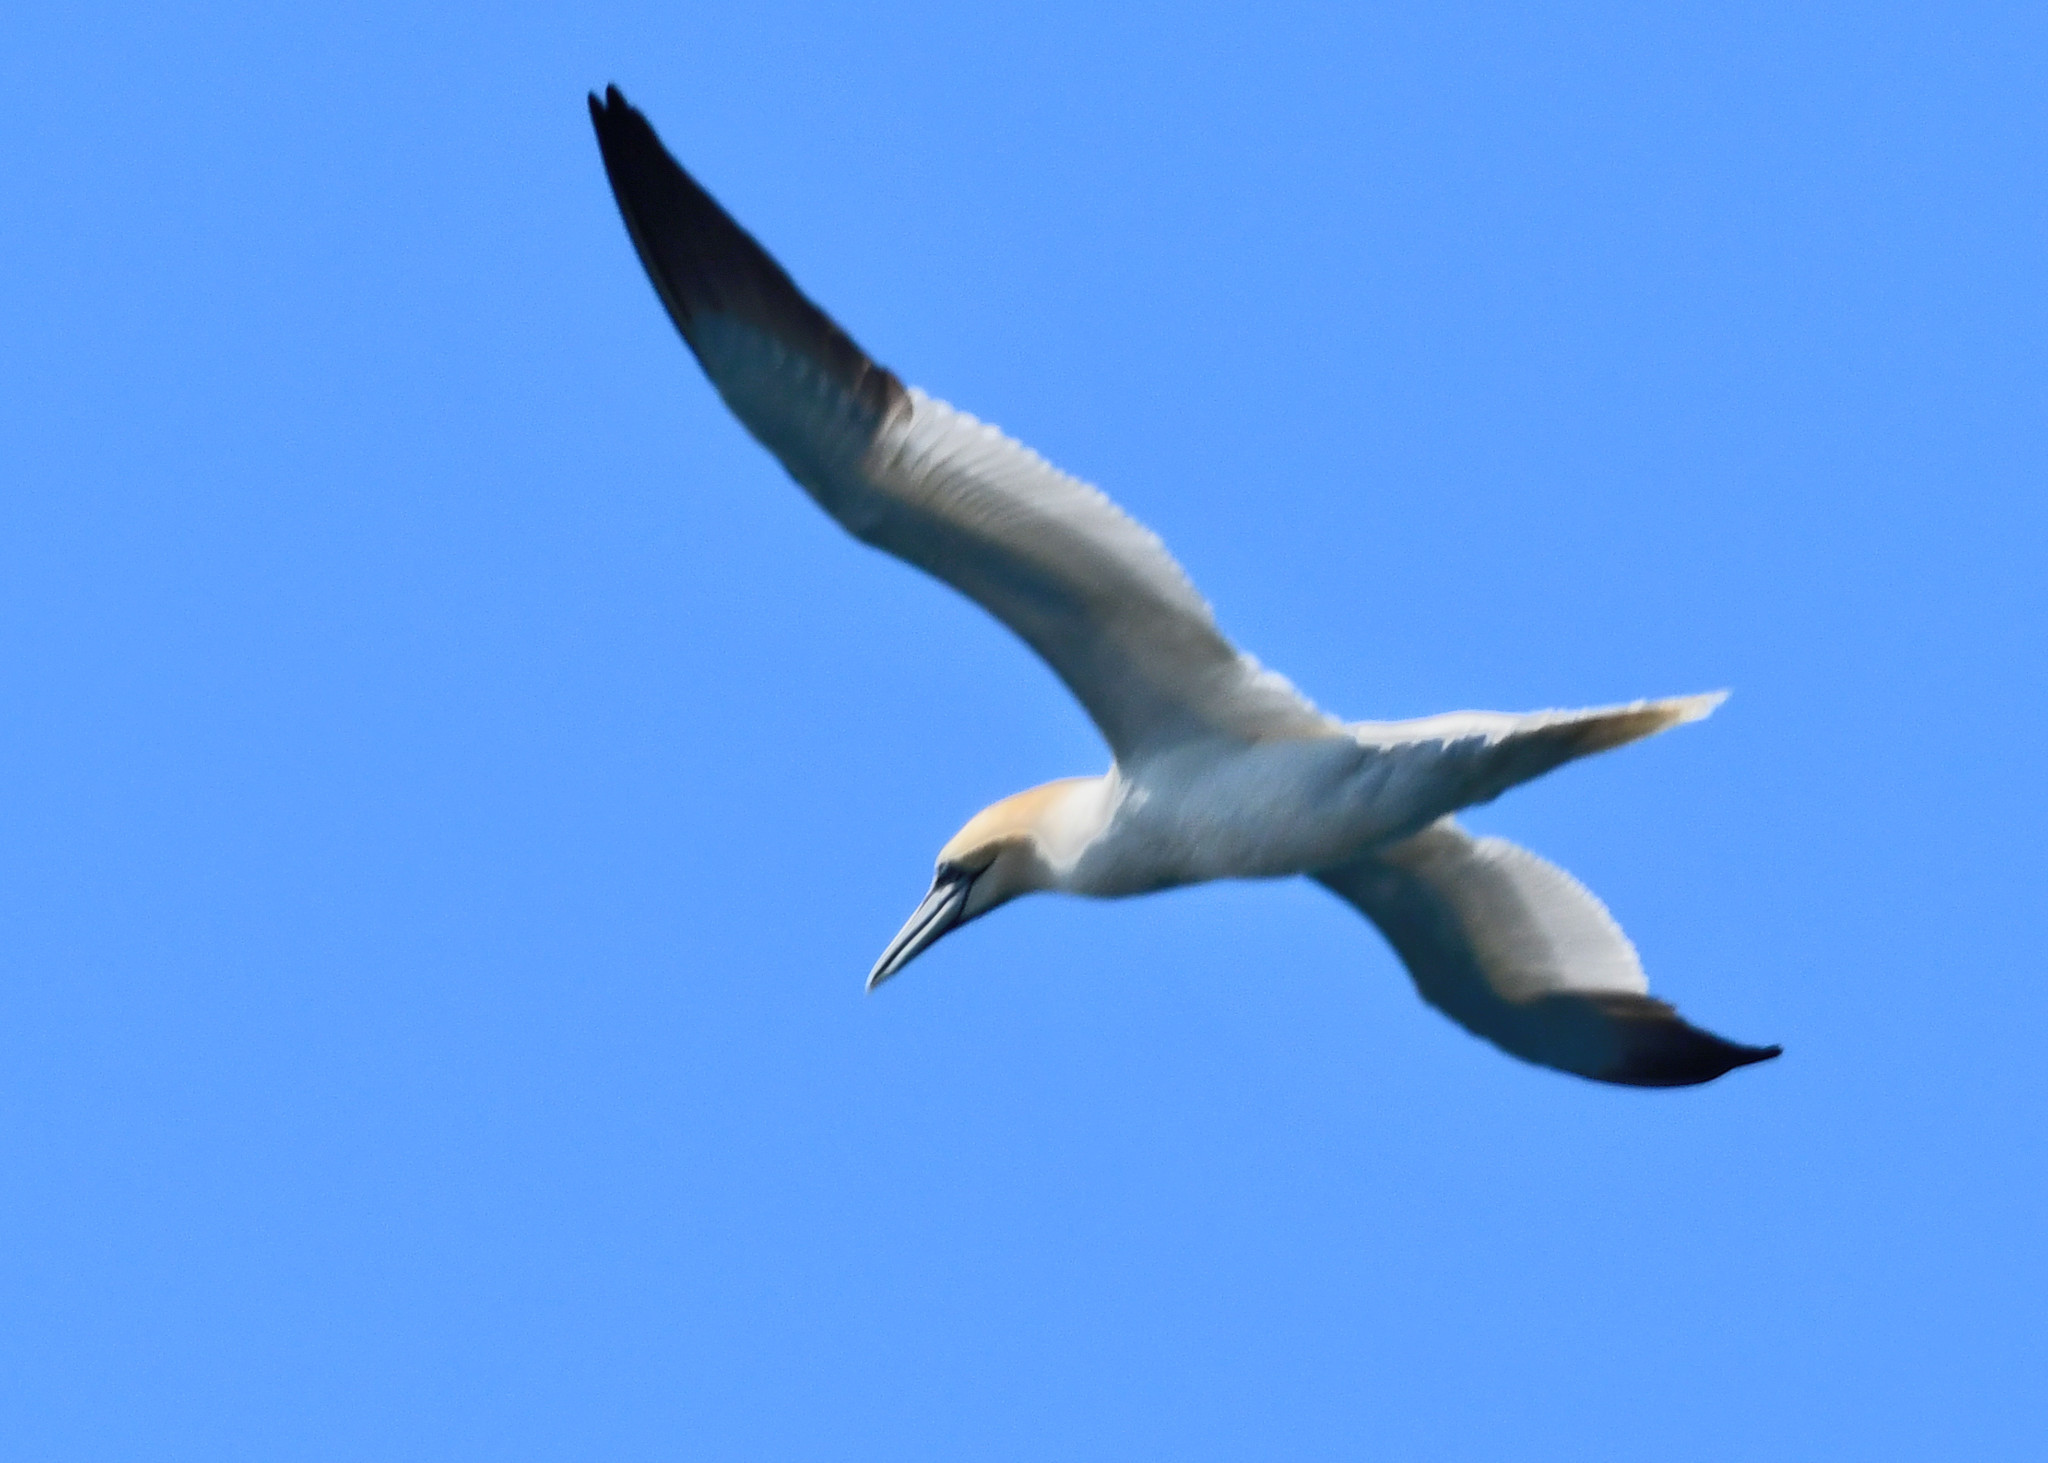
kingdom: Animalia
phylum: Chordata
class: Aves
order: Suliformes
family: Sulidae
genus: Morus
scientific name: Morus bassanus
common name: Northern gannet
